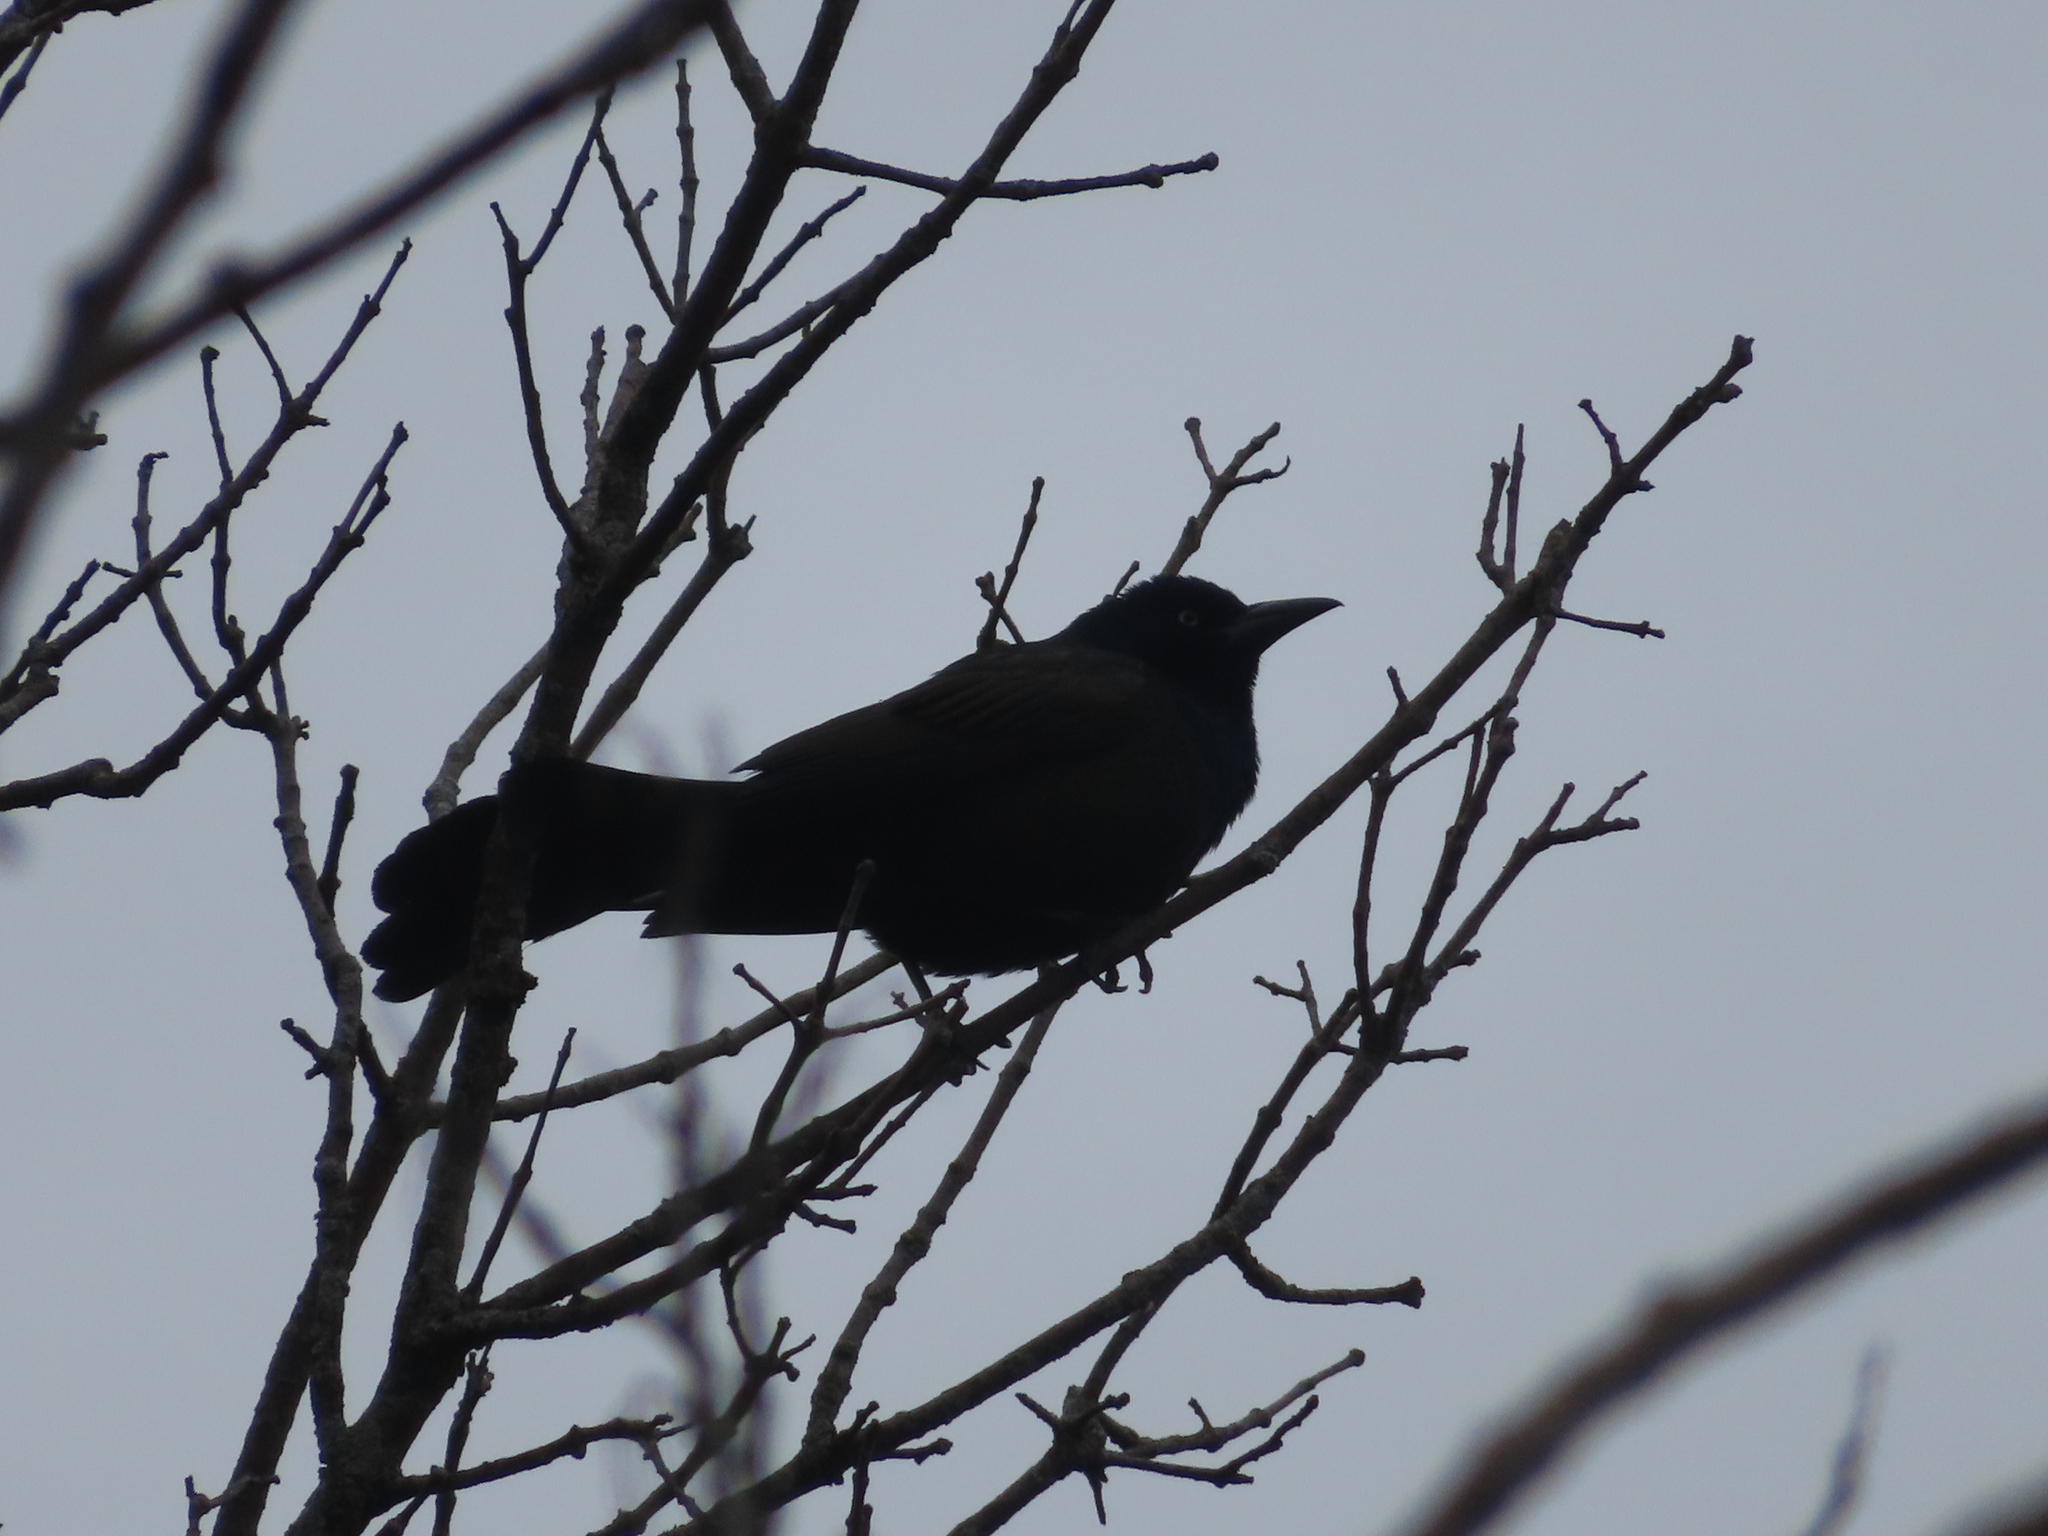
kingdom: Animalia
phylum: Chordata
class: Aves
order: Passeriformes
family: Icteridae
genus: Quiscalus
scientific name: Quiscalus quiscula
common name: Common grackle
